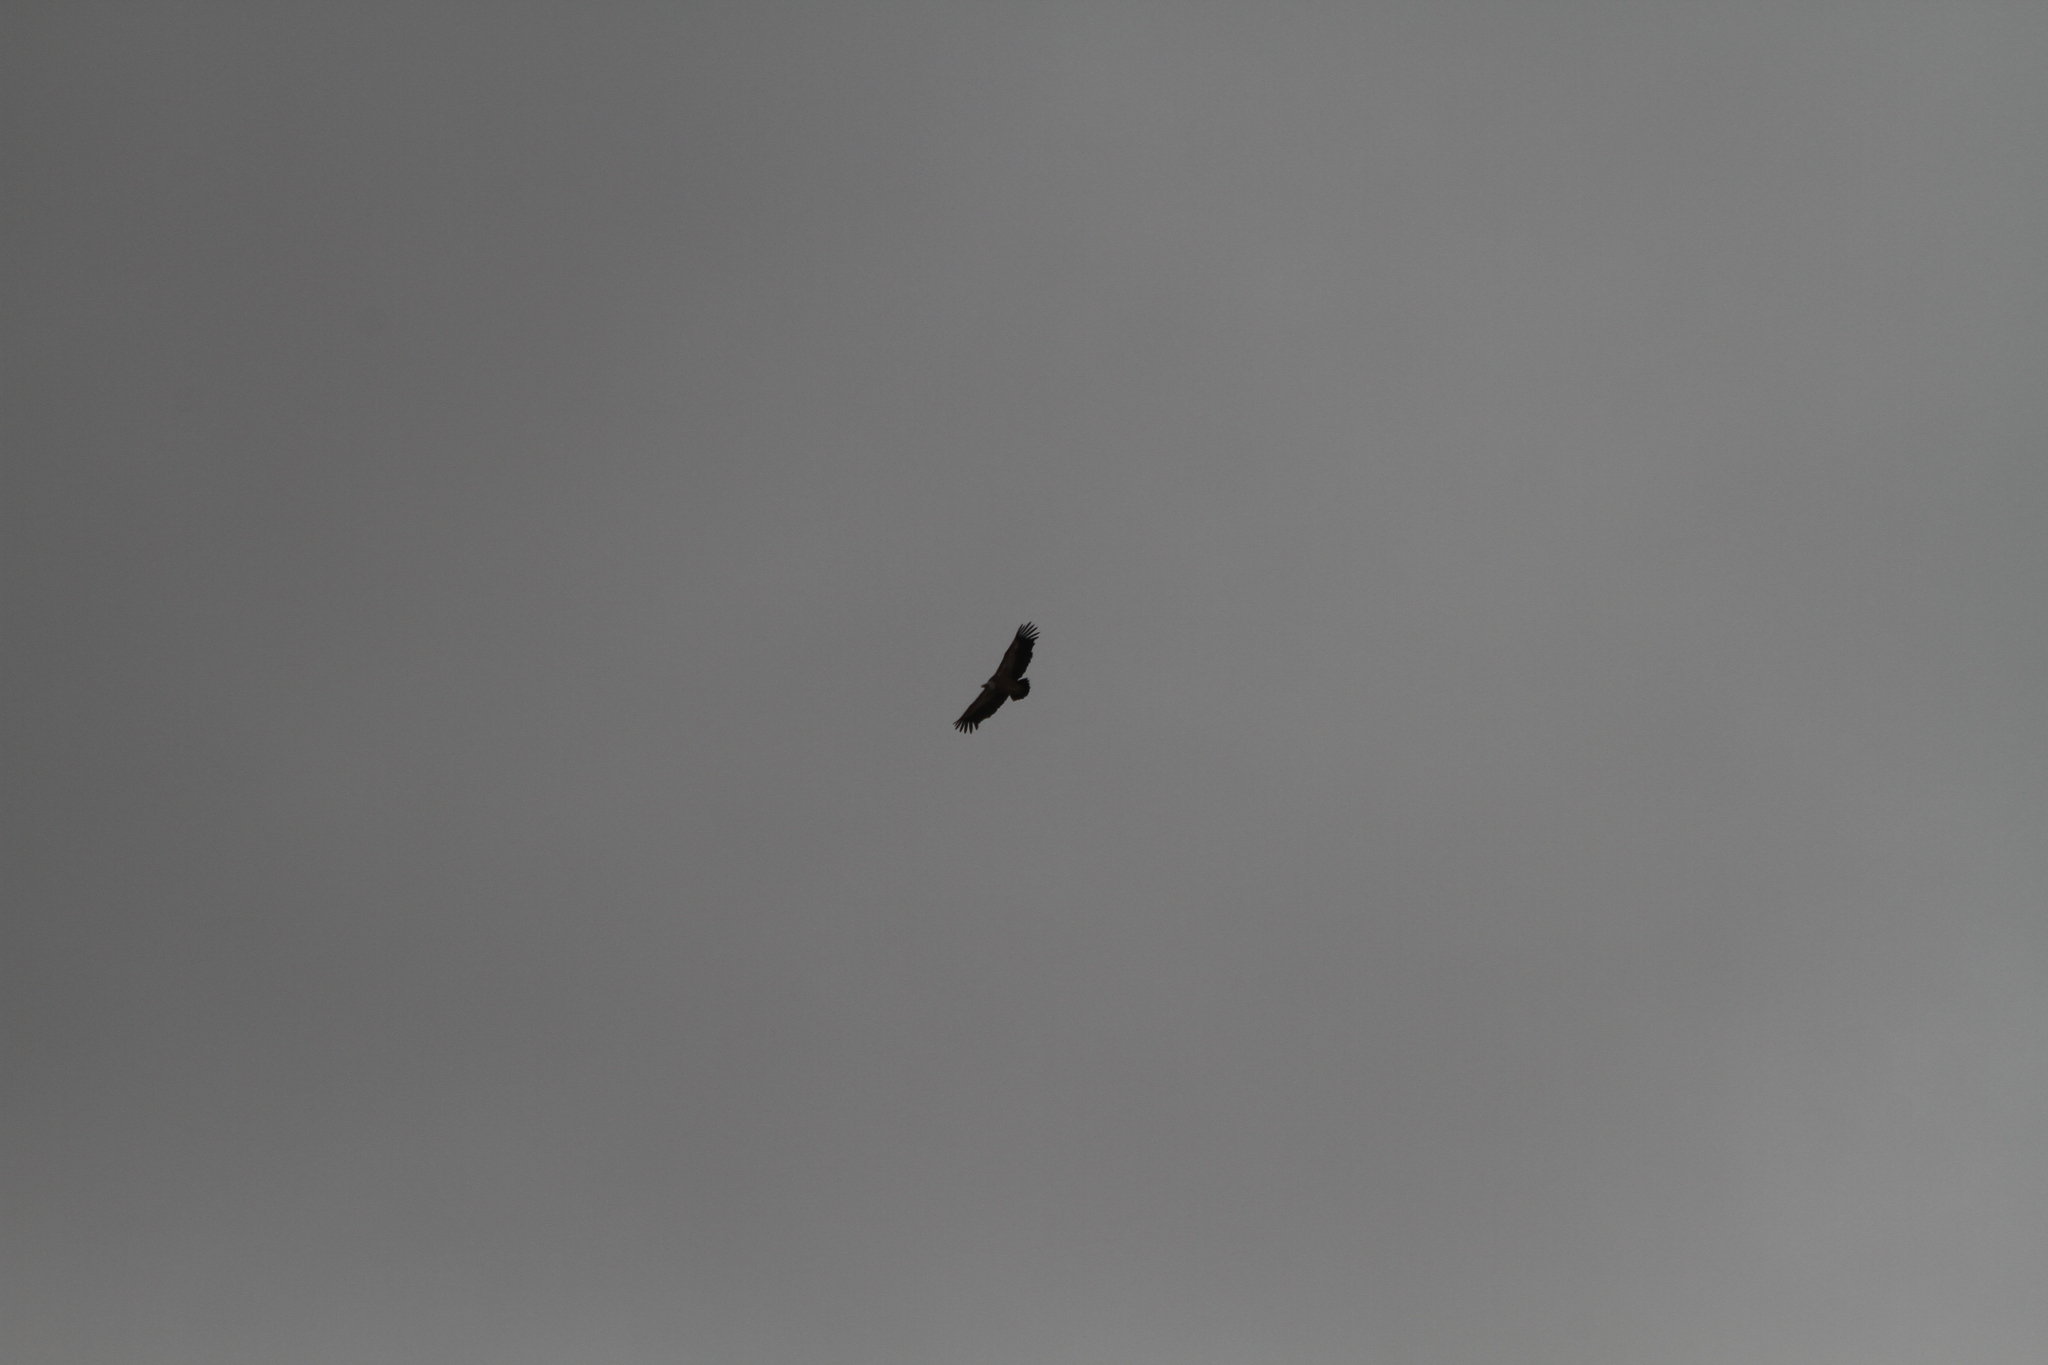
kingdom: Animalia
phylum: Chordata
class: Aves
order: Accipitriformes
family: Accipitridae
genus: Gyps
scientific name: Gyps fulvus
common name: Griffon vulture
